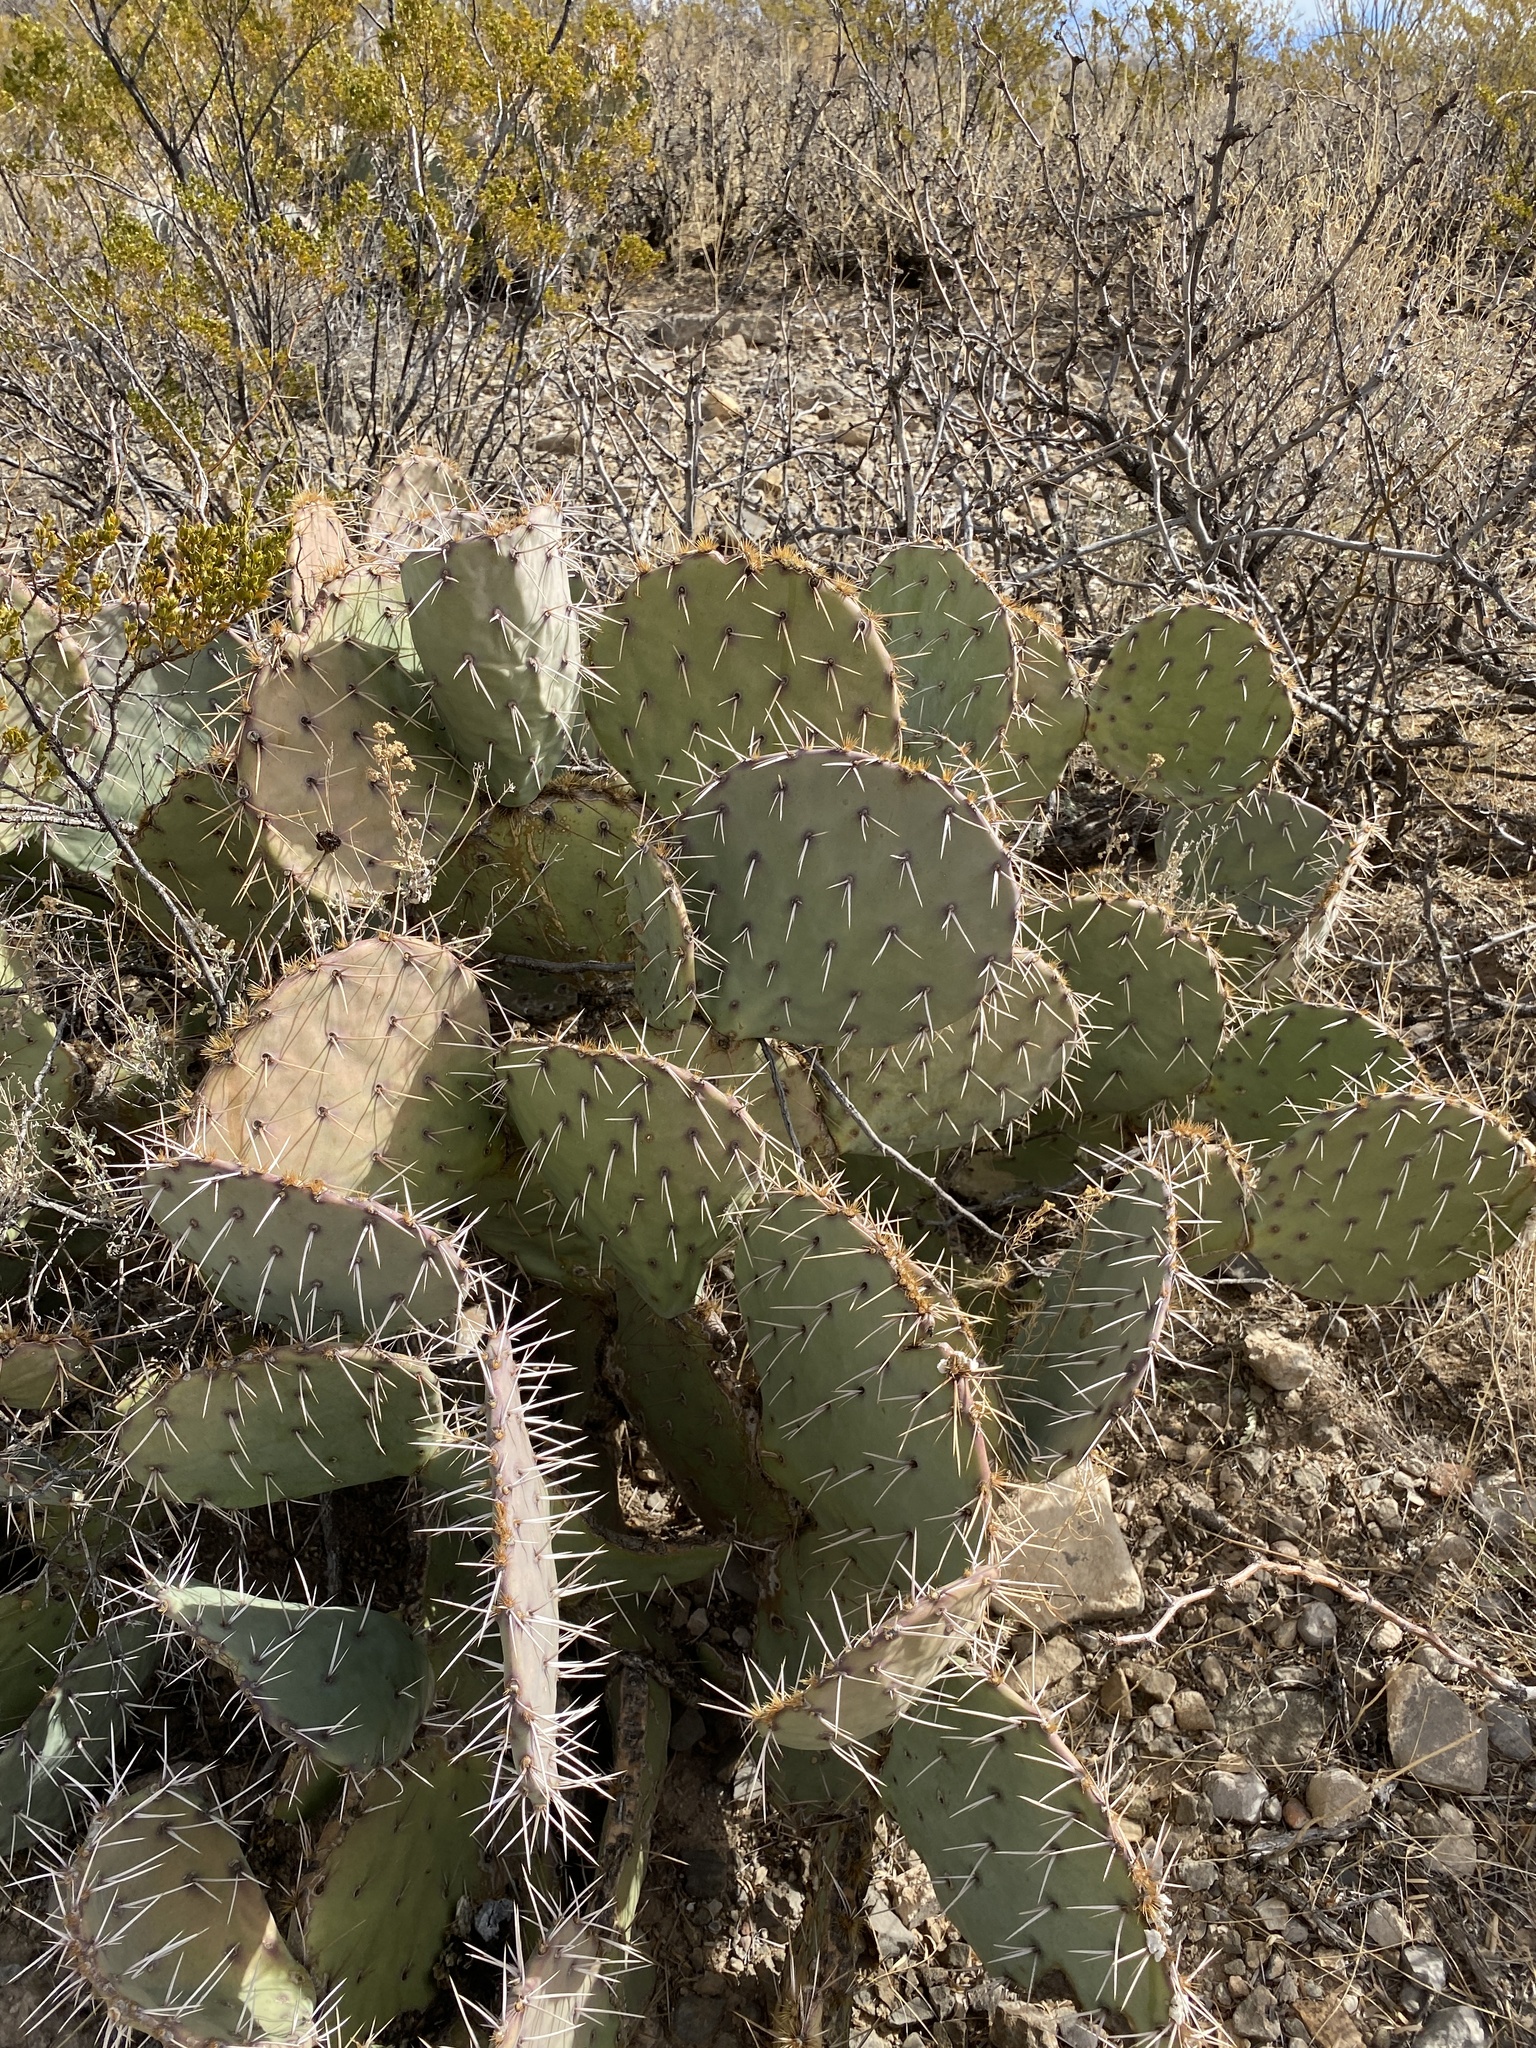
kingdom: Plantae
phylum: Tracheophyta
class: Magnoliopsida
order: Caryophyllales
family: Cactaceae
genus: Opuntia
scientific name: Opuntia engelmannii
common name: Cactus-apple
